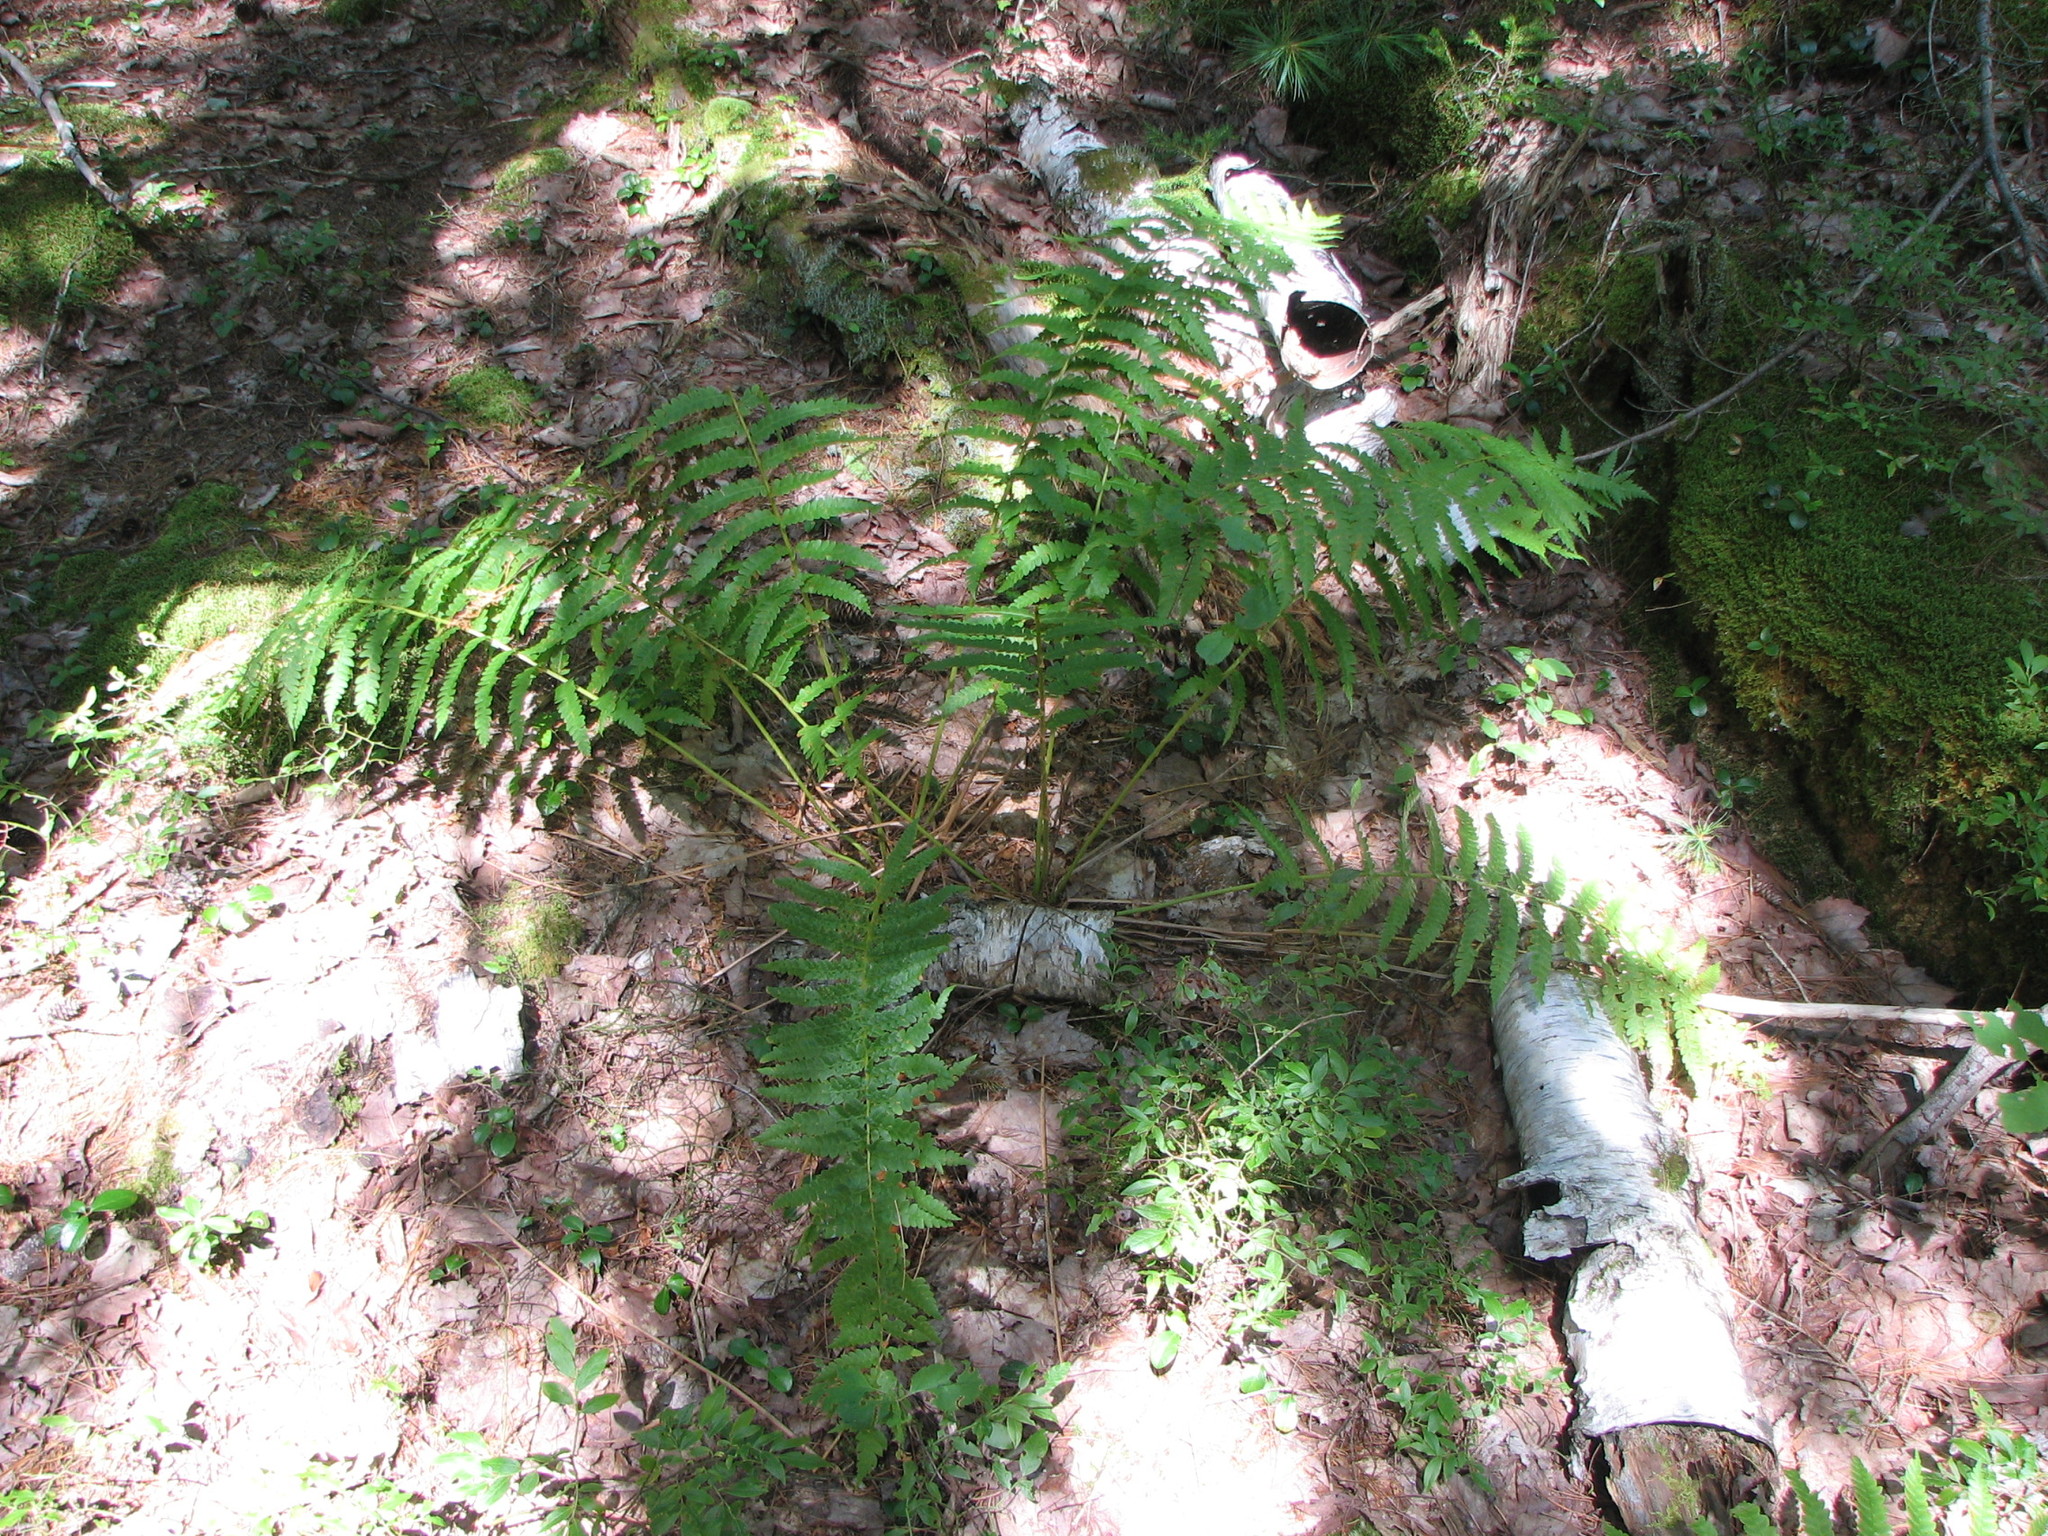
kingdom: Plantae
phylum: Tracheophyta
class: Polypodiopsida
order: Osmundales
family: Osmundaceae
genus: Osmundastrum
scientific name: Osmundastrum cinnamomeum
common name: Cinnamon fern
